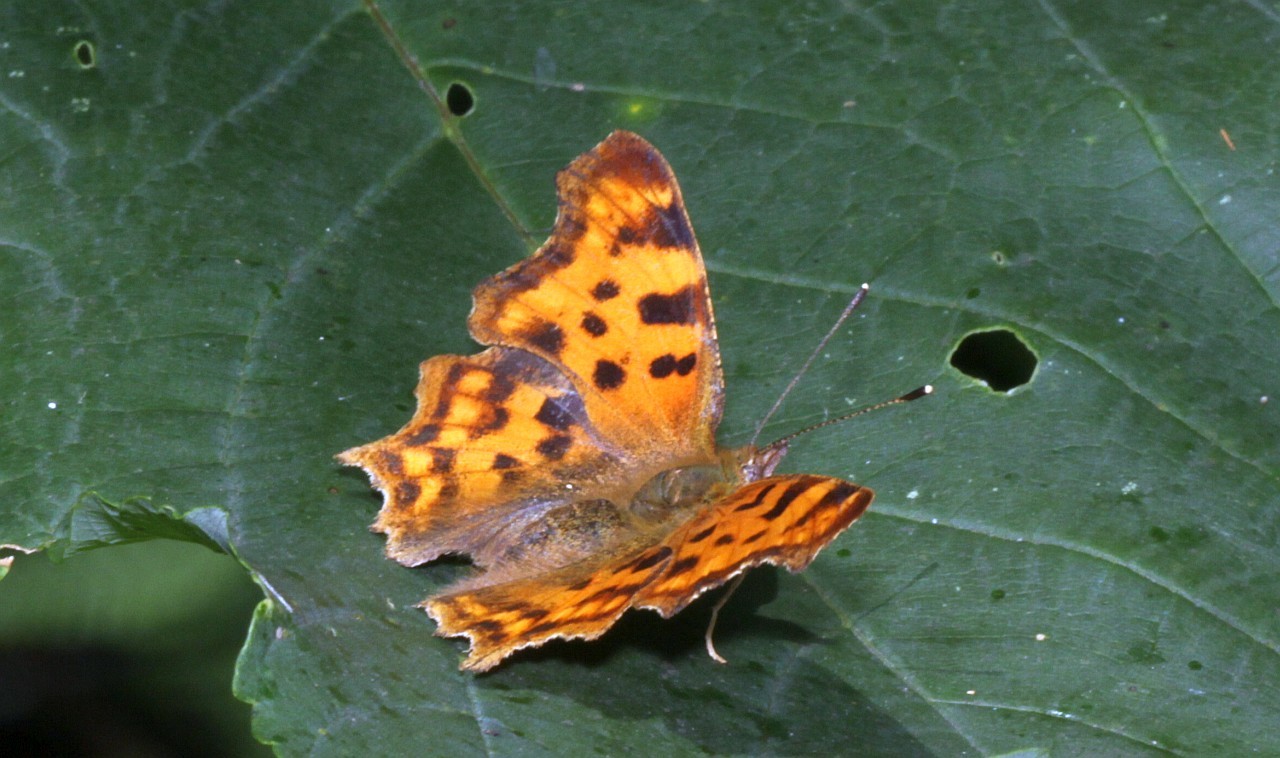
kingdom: Animalia
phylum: Arthropoda
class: Insecta
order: Lepidoptera
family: Nymphalidae
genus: Polygonia
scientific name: Polygonia c-album
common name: Comma
